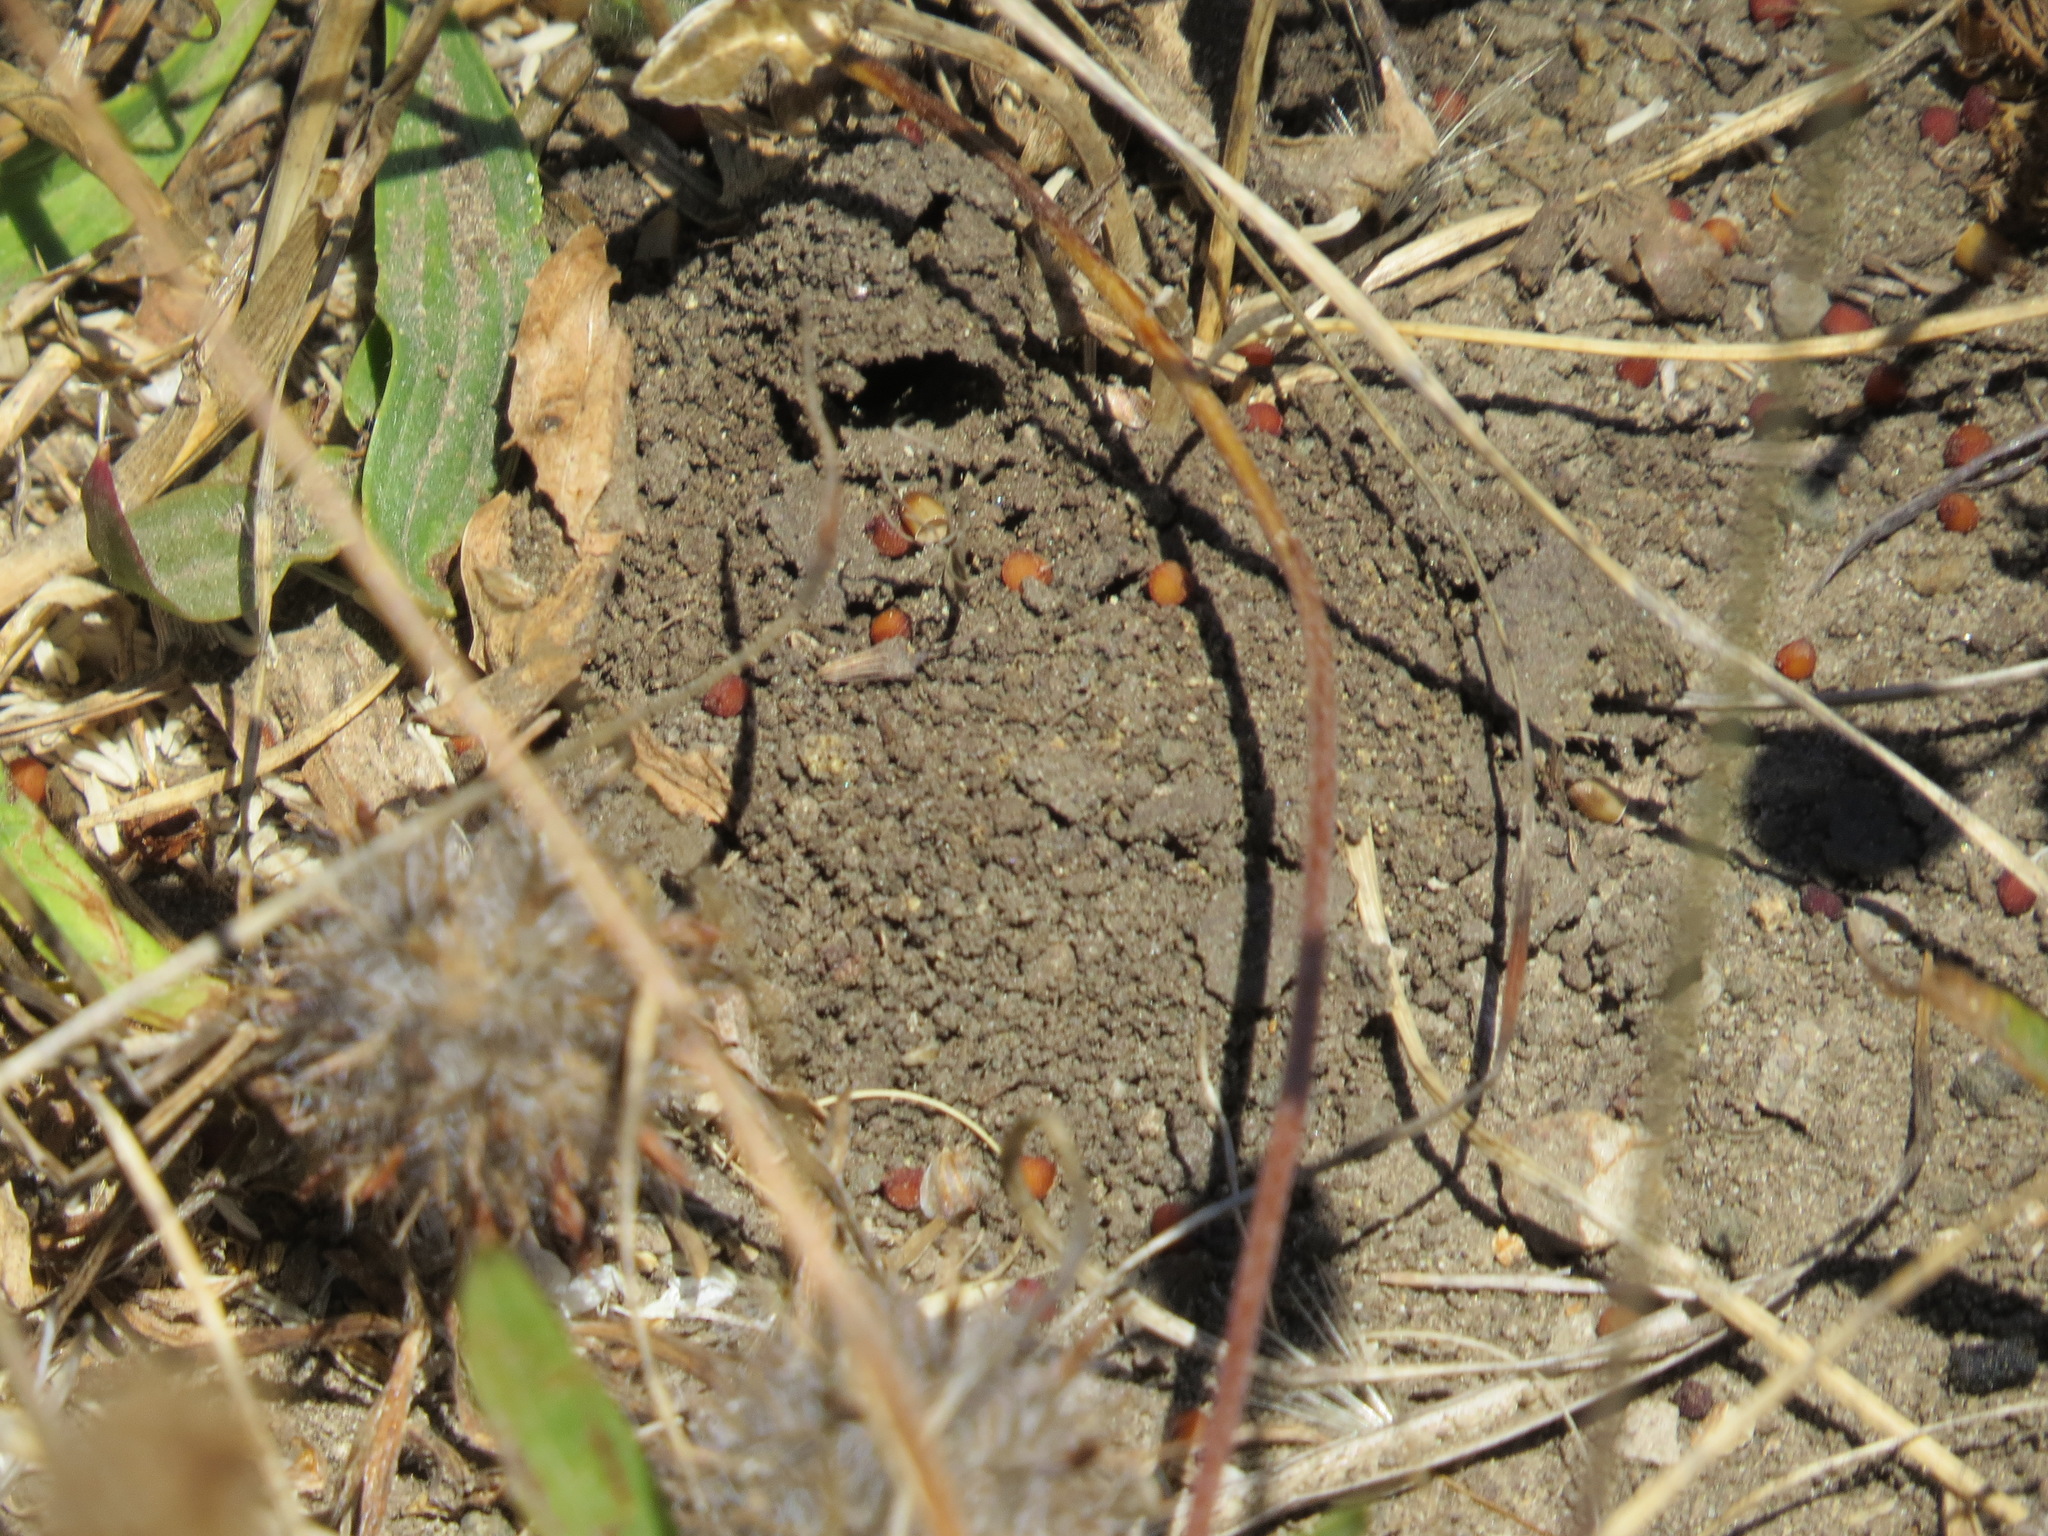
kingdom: Animalia
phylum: Arthropoda
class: Insecta
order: Hymenoptera
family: Apidae
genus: Diadasia
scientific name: Diadasia bituberculata
